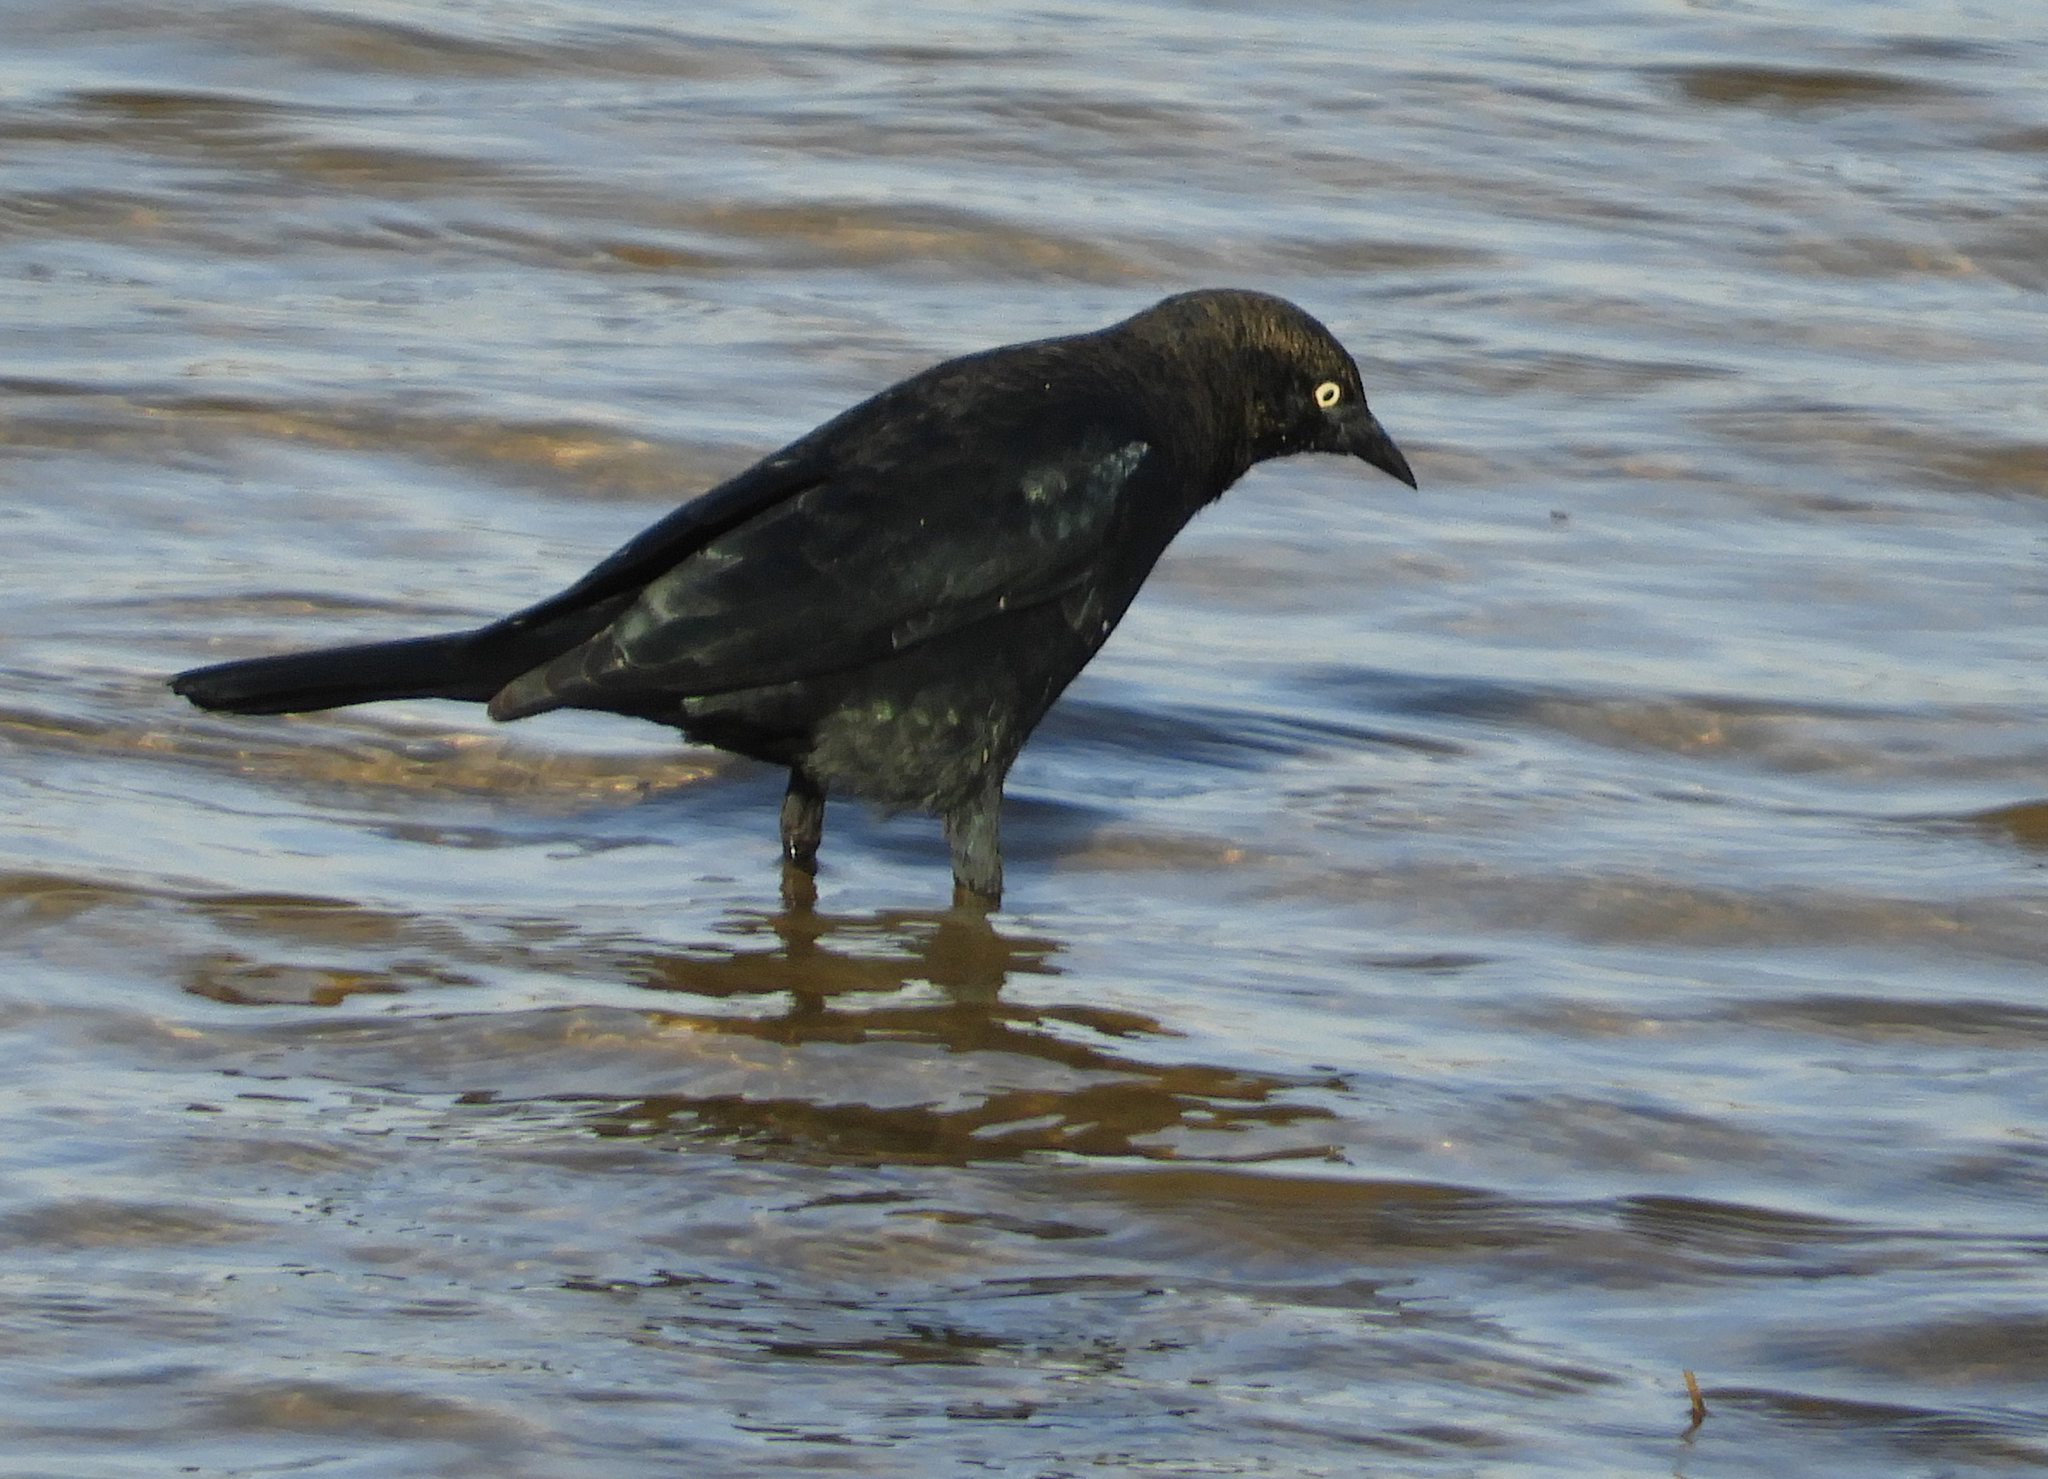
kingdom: Animalia
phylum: Chordata
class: Aves
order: Passeriformes
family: Icteridae
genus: Euphagus
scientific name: Euphagus cyanocephalus
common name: Brewer's blackbird
